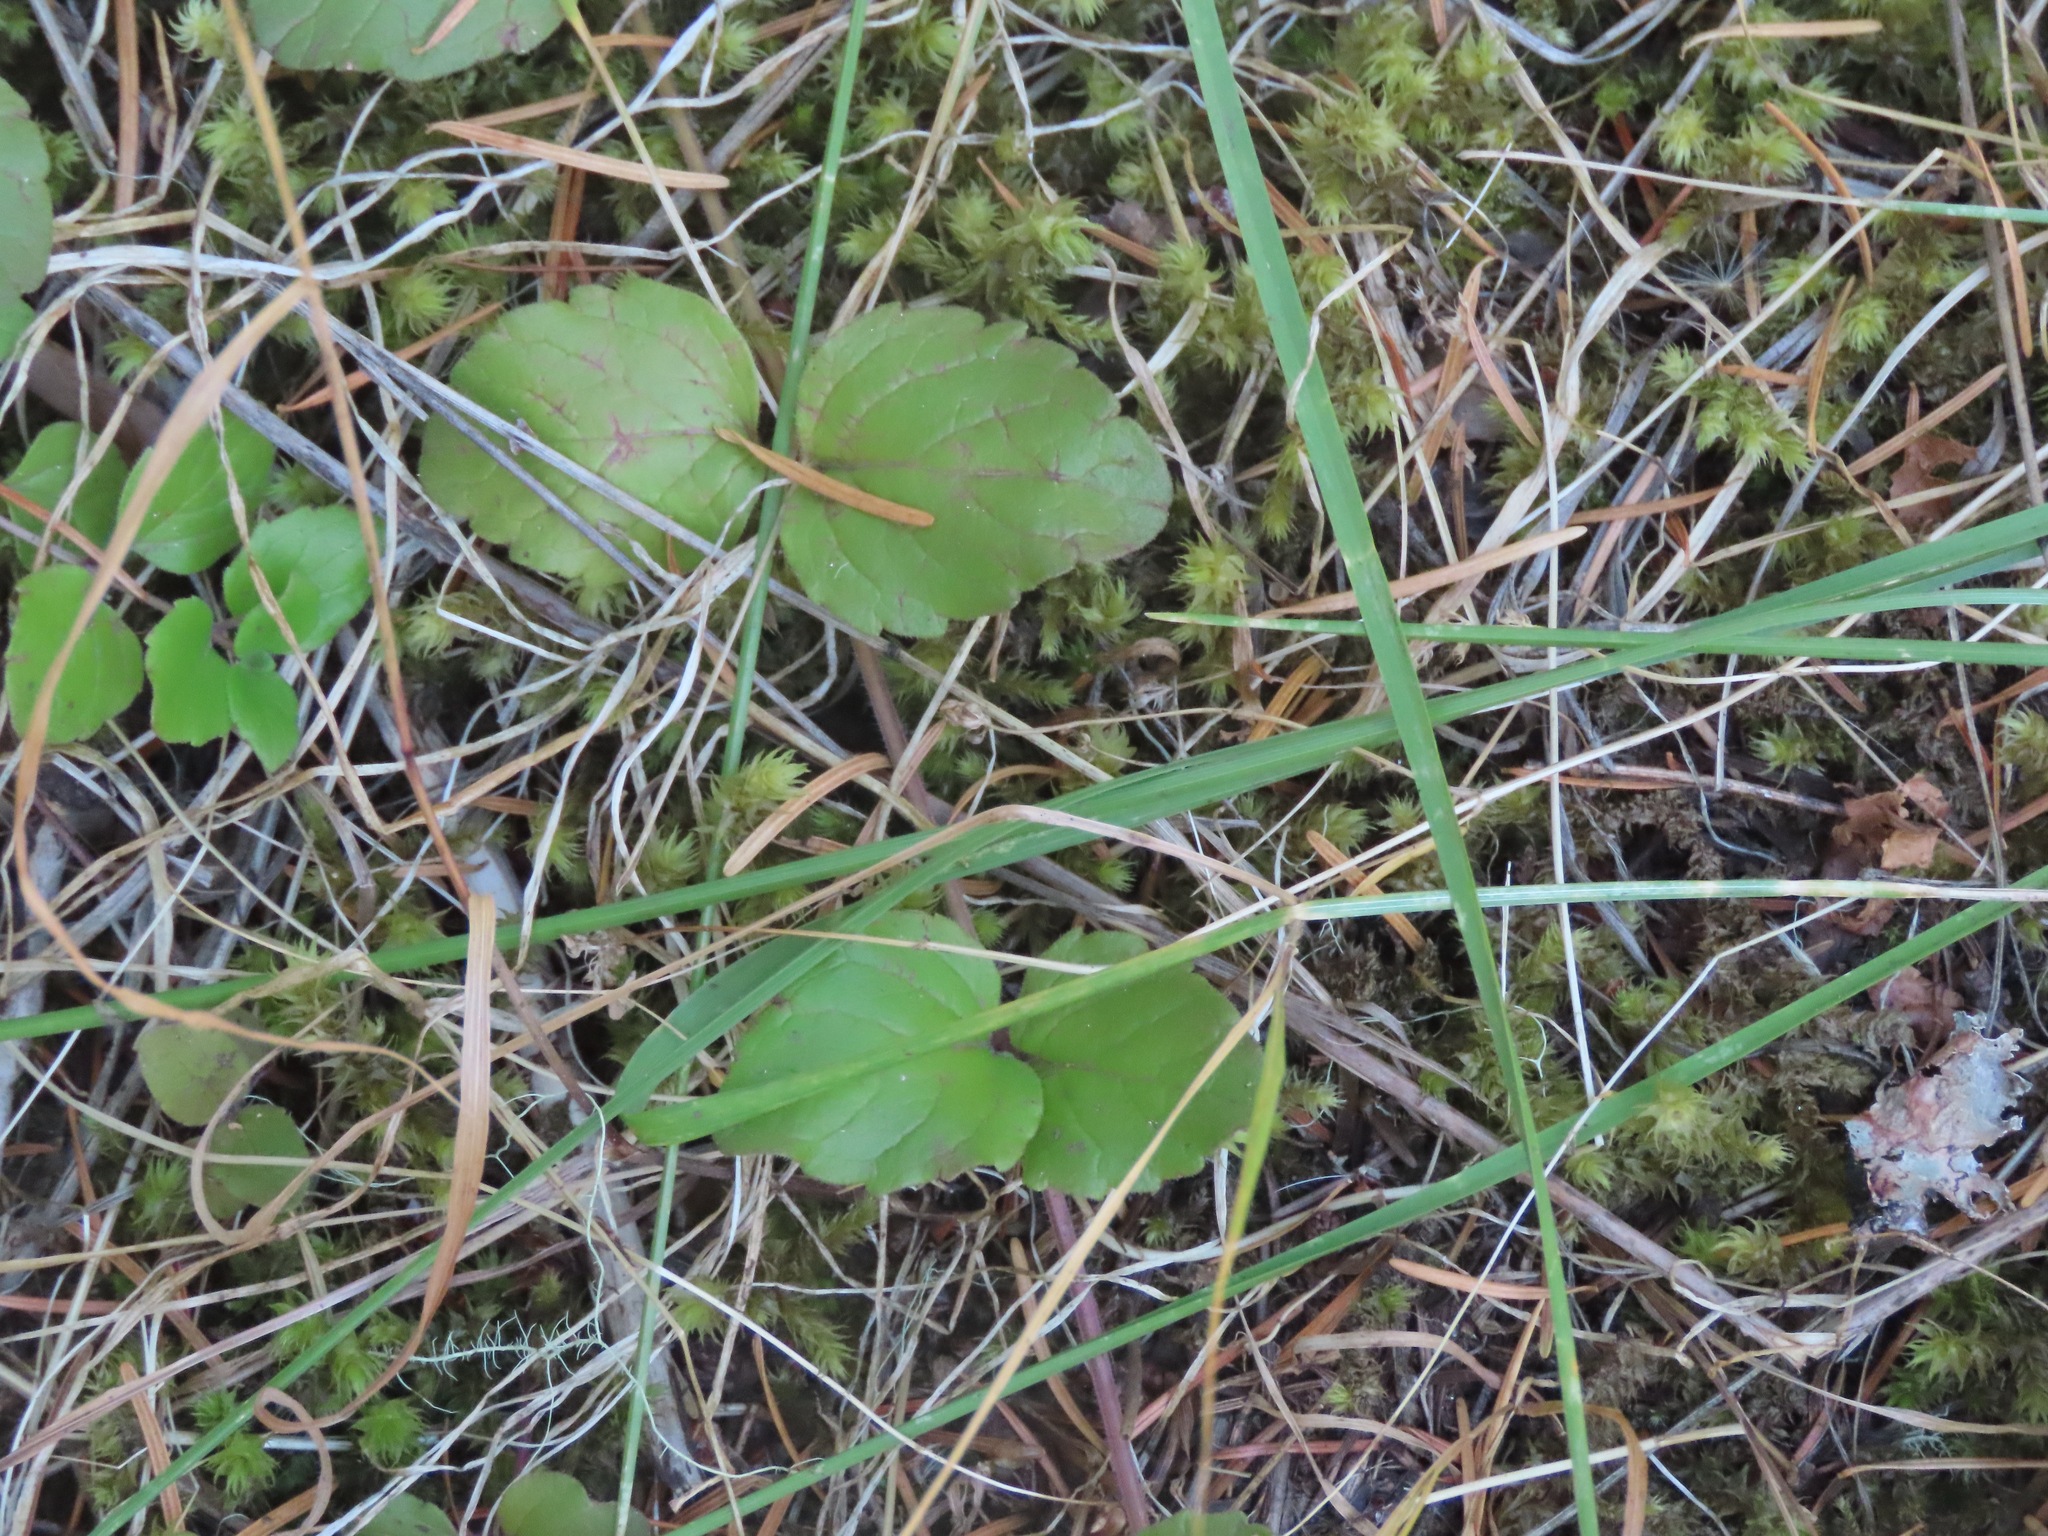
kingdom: Plantae
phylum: Tracheophyta
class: Magnoliopsida
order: Lamiales
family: Lamiaceae
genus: Micromeria
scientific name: Micromeria douglasii
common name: Yerba buena
